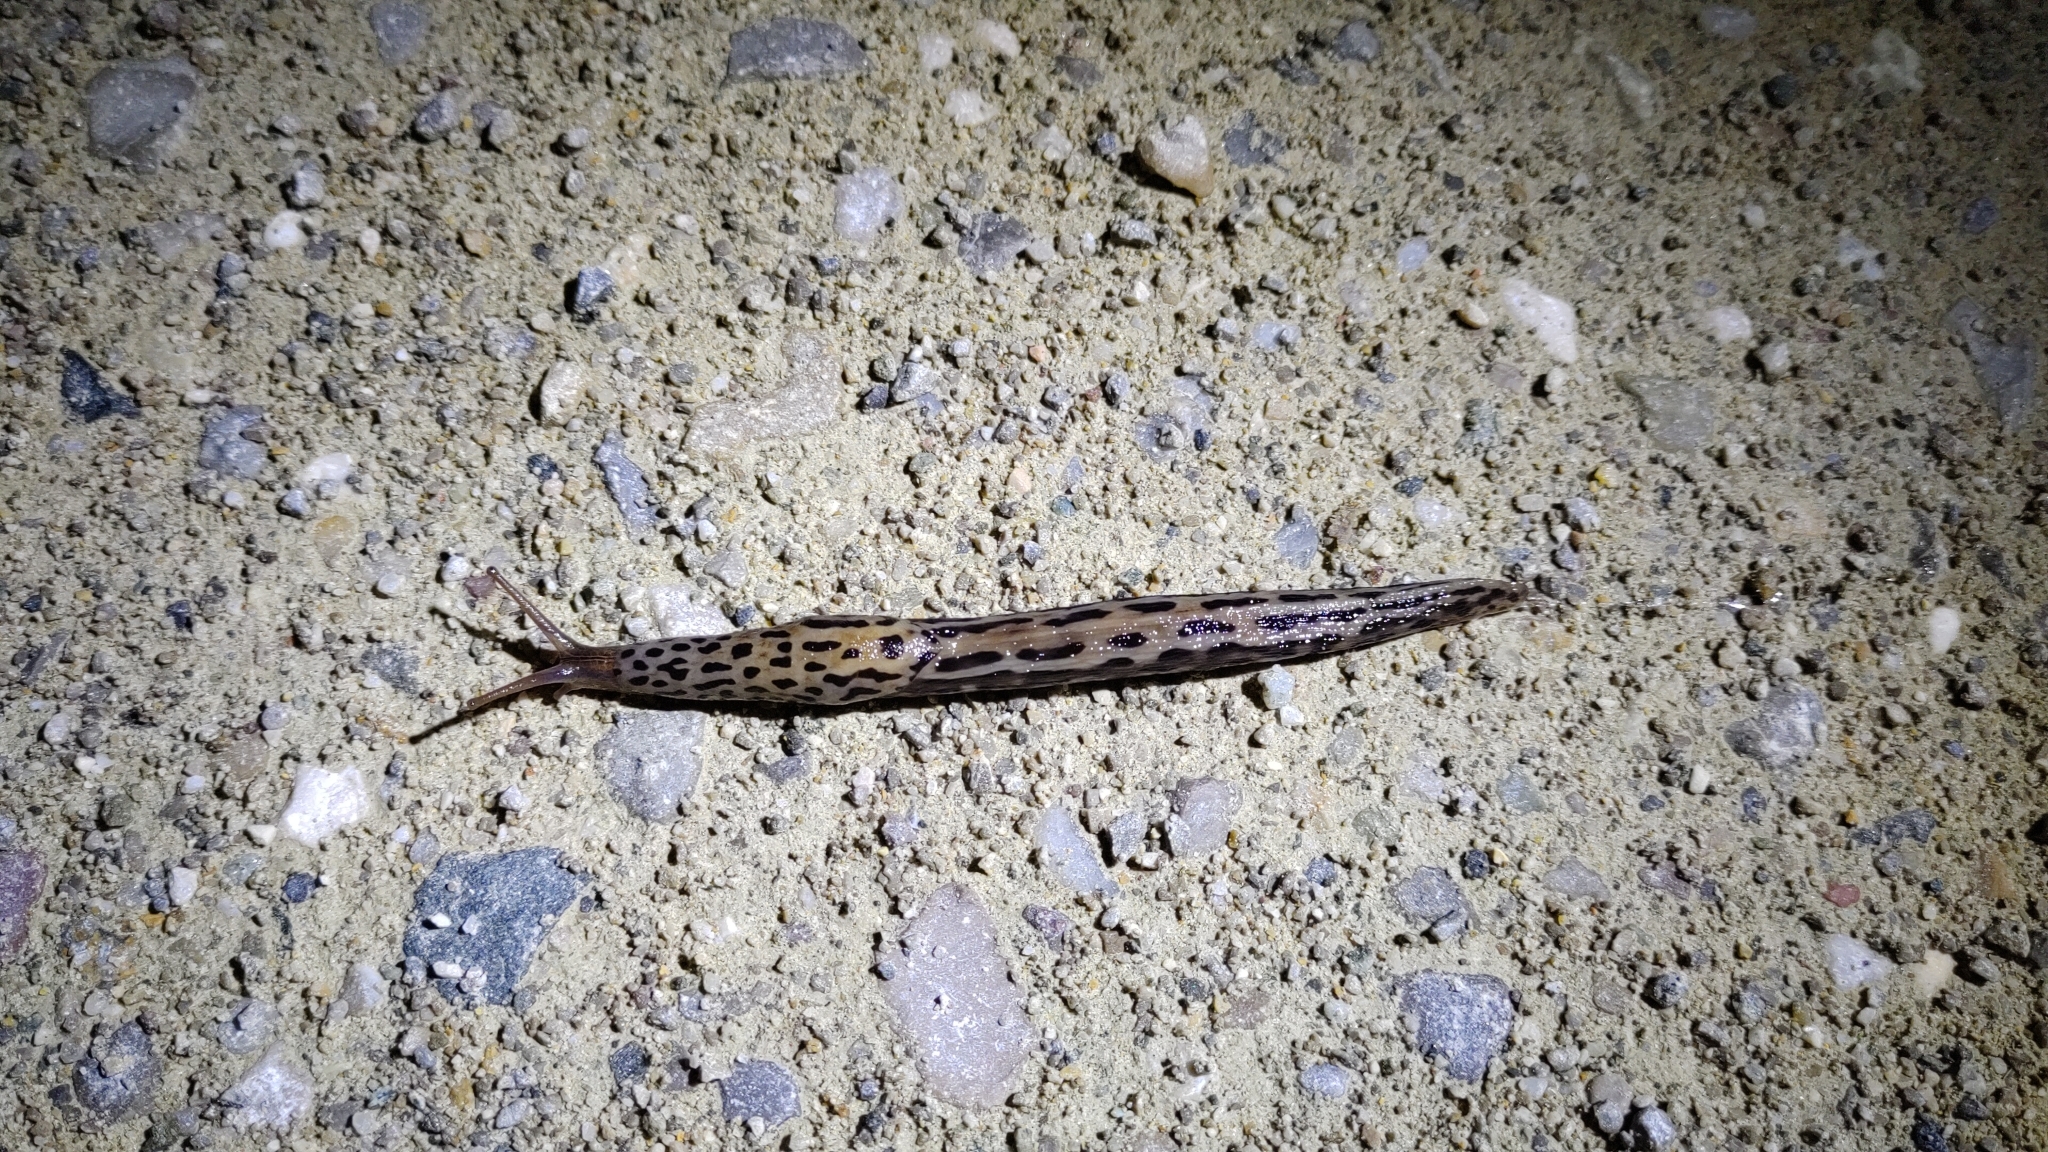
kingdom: Animalia
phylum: Mollusca
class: Gastropoda
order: Stylommatophora
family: Limacidae
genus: Limax
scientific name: Limax maximus
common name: Great grey slug
